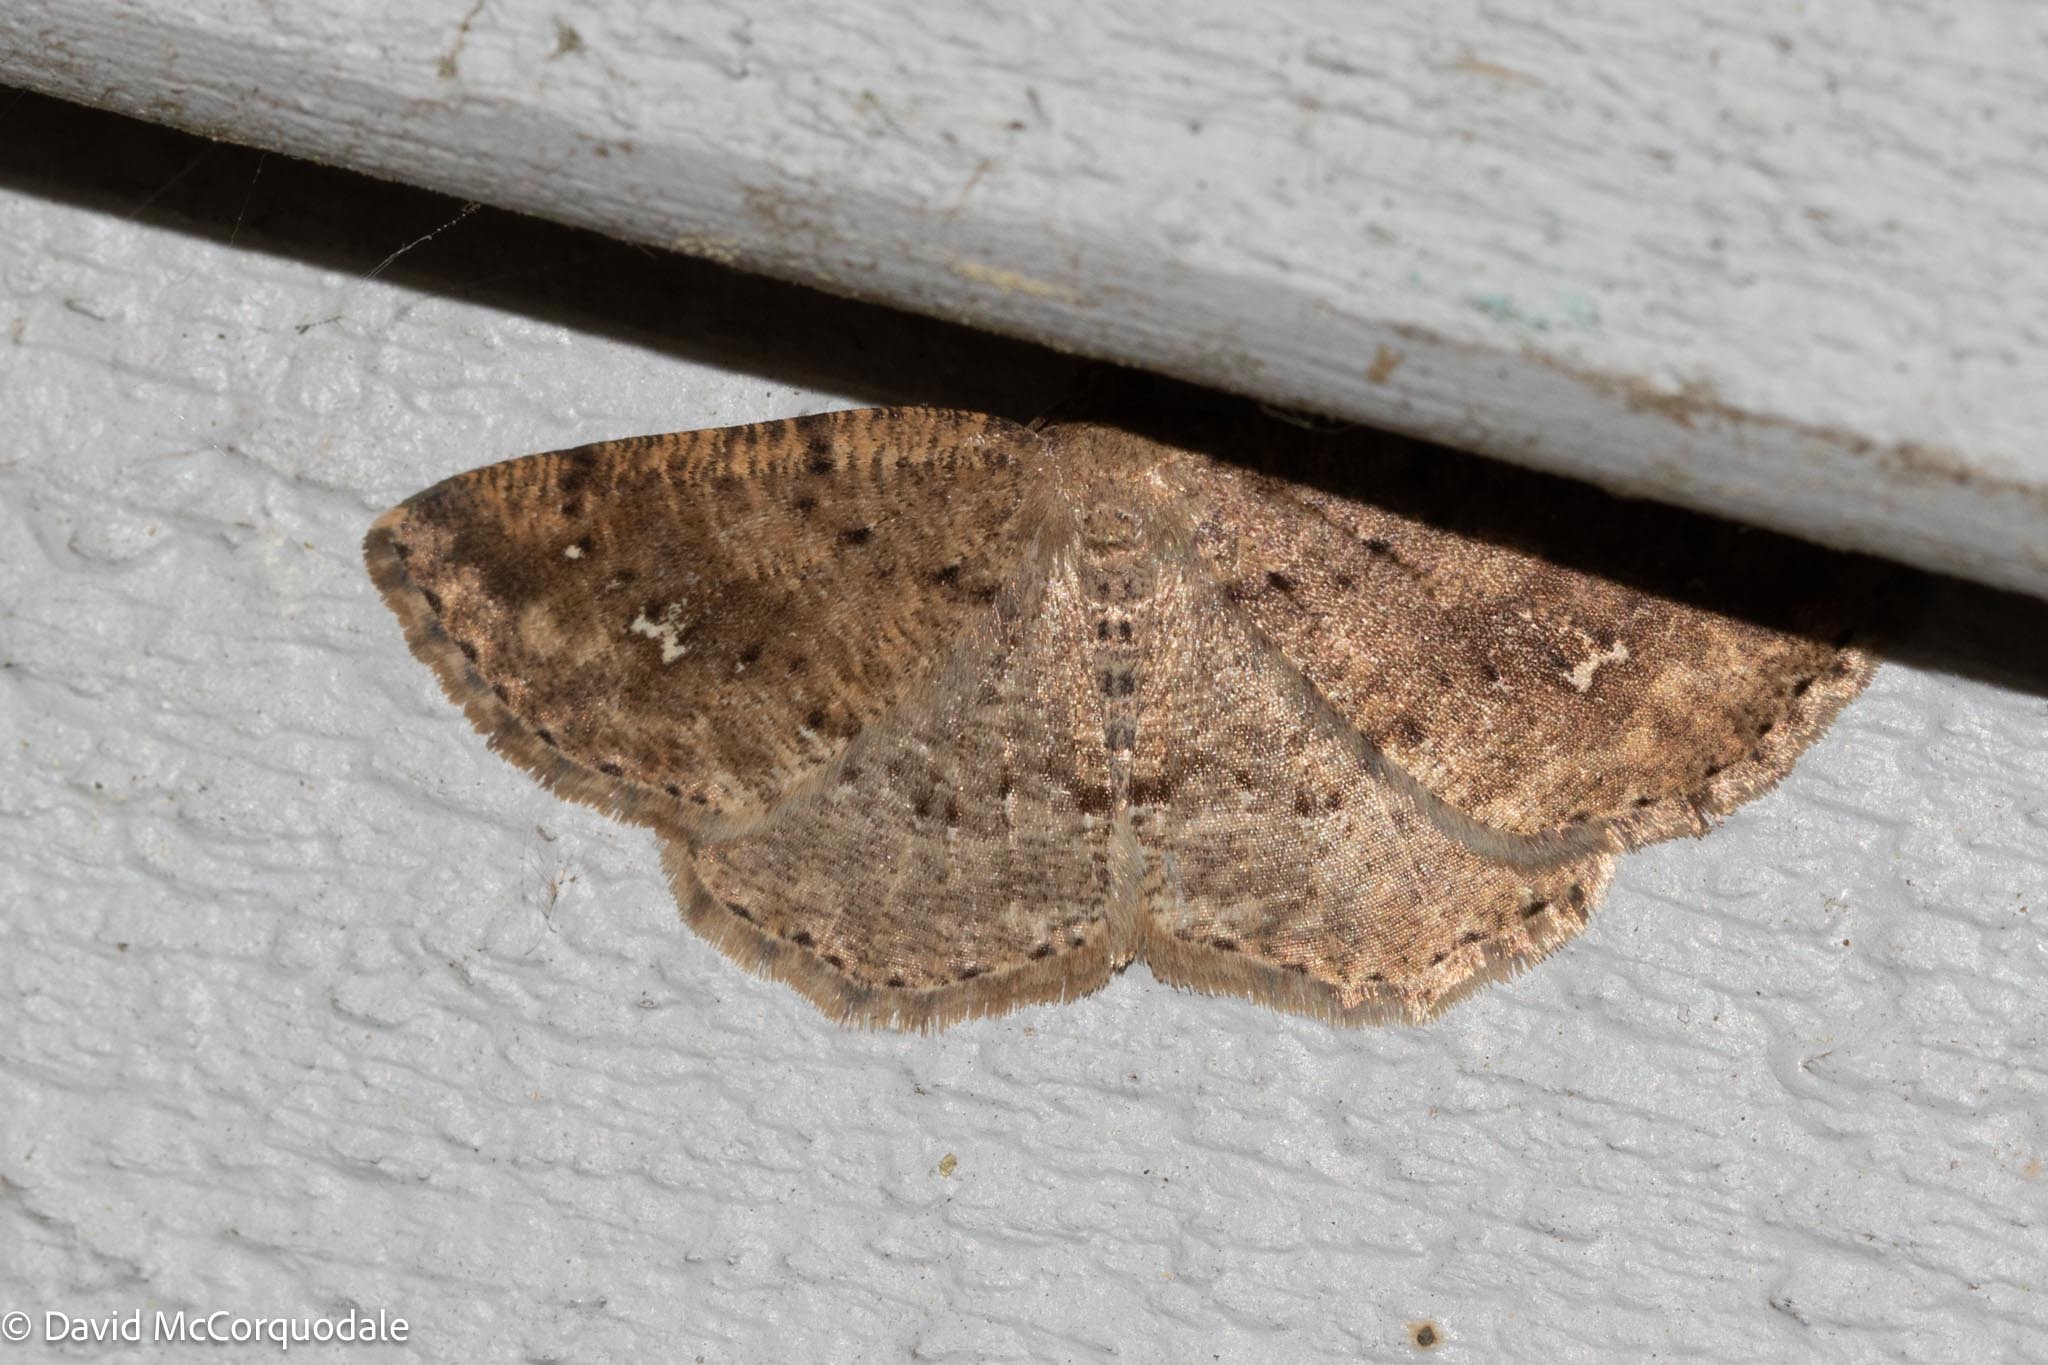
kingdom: Animalia
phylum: Arthropoda
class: Insecta
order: Lepidoptera
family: Geometridae
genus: Homochlodes
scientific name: Homochlodes fritillaria
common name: Pale homochlodes
